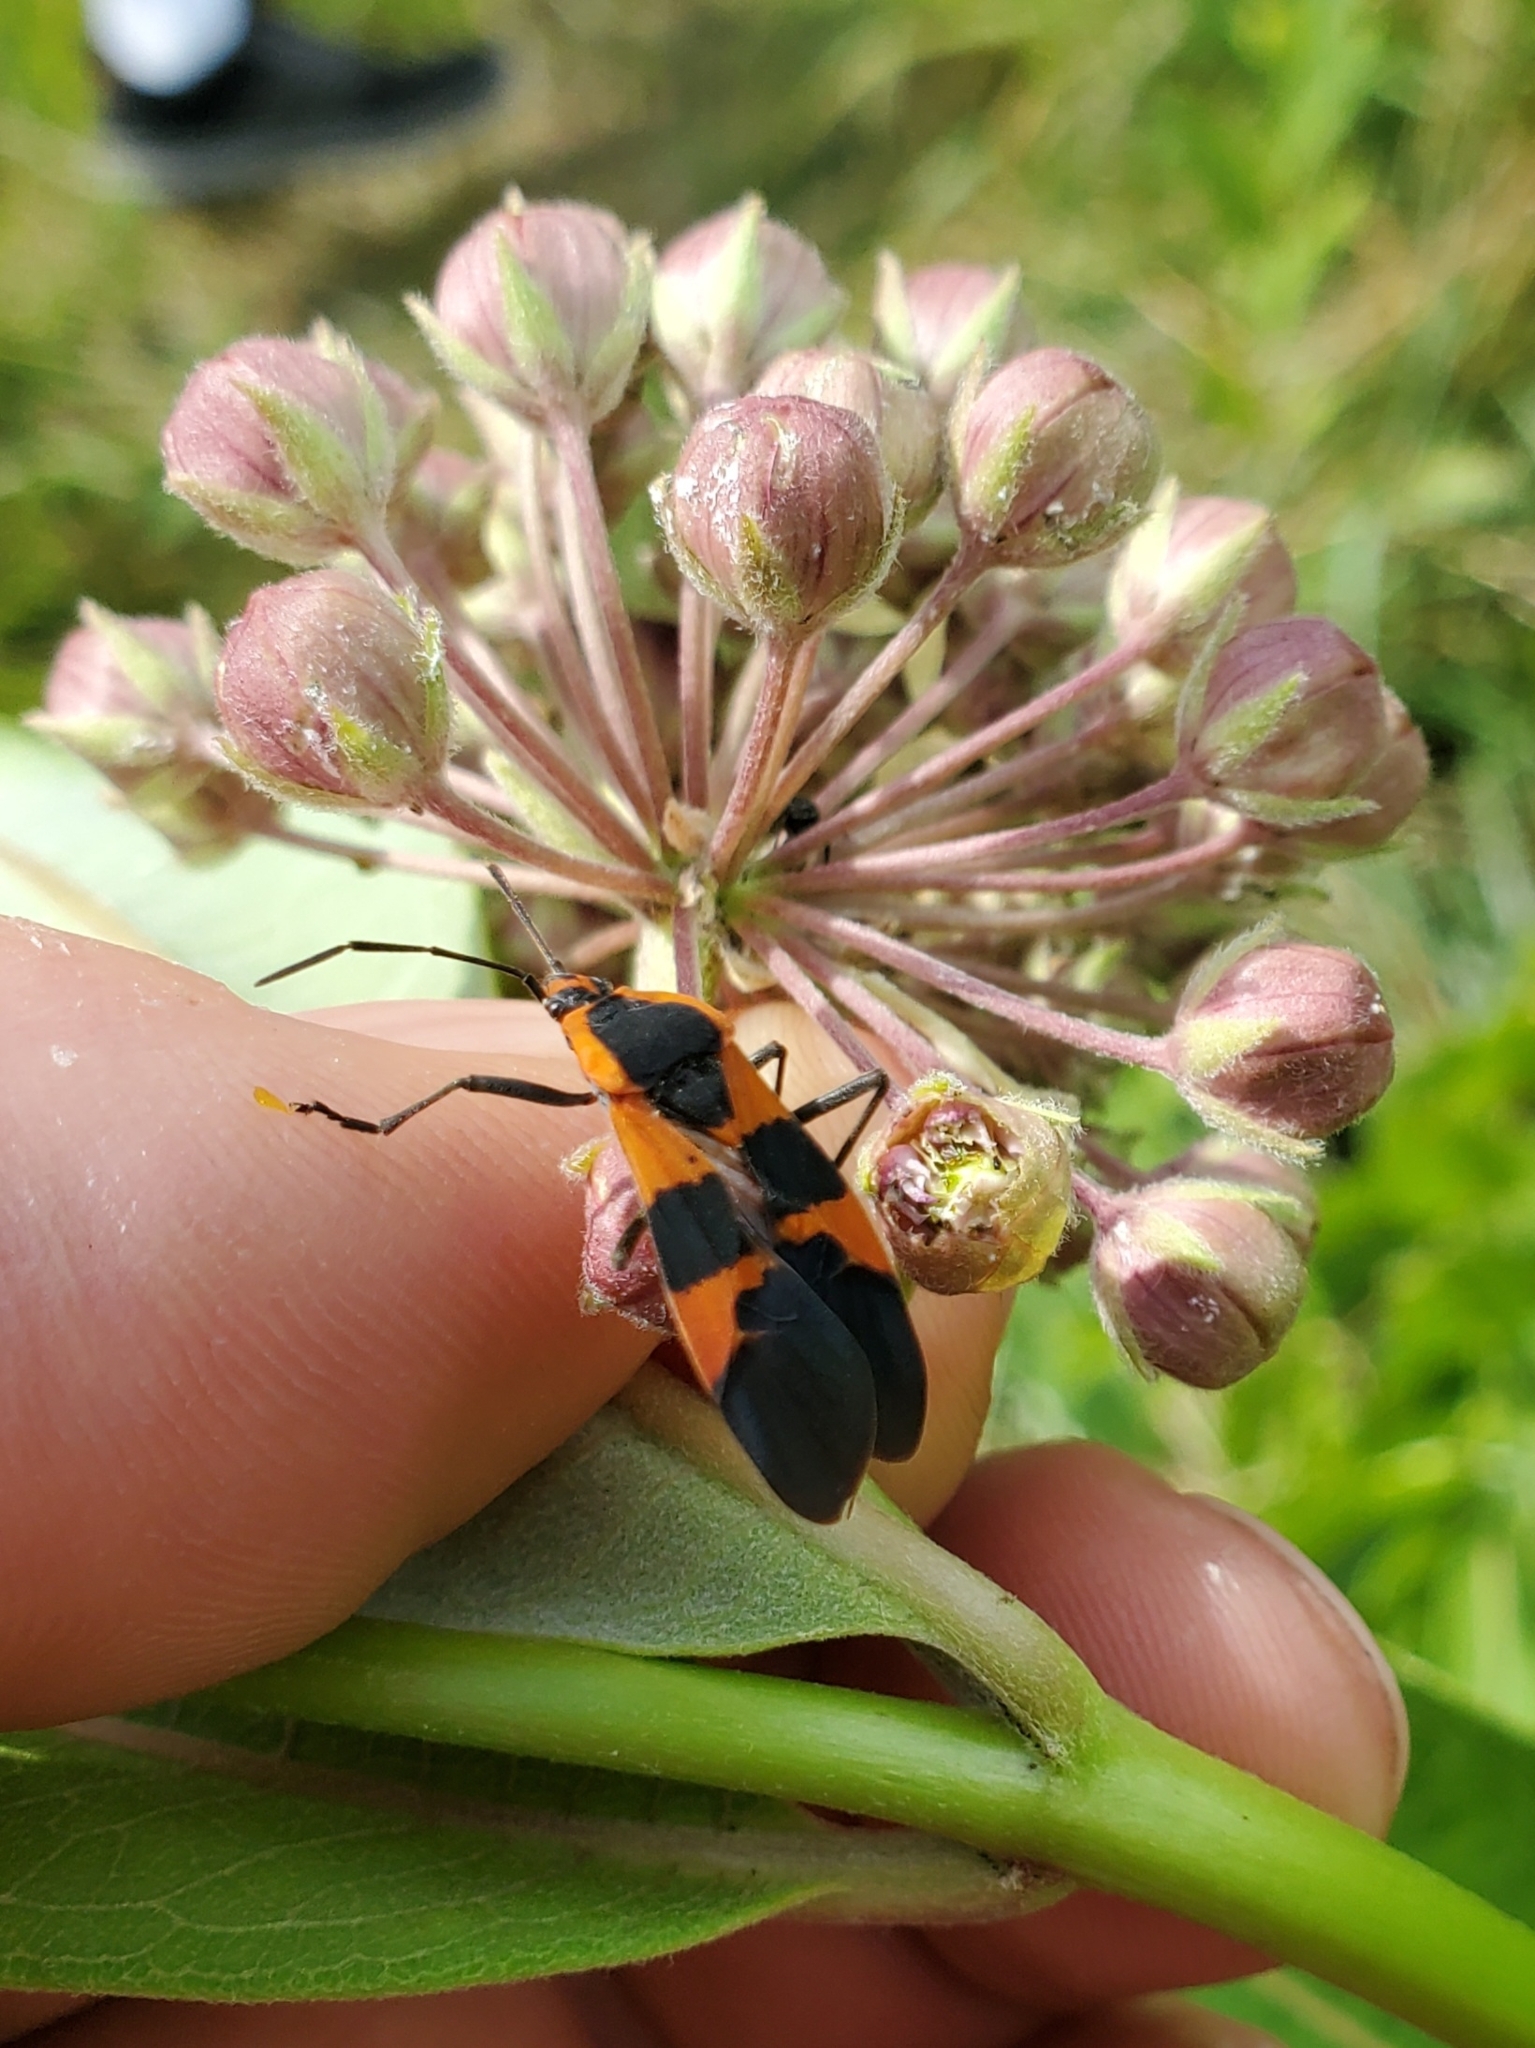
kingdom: Animalia
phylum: Arthropoda
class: Insecta
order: Hemiptera
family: Lygaeidae
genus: Oncopeltus
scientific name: Oncopeltus fasciatus
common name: Large milkweed bug
